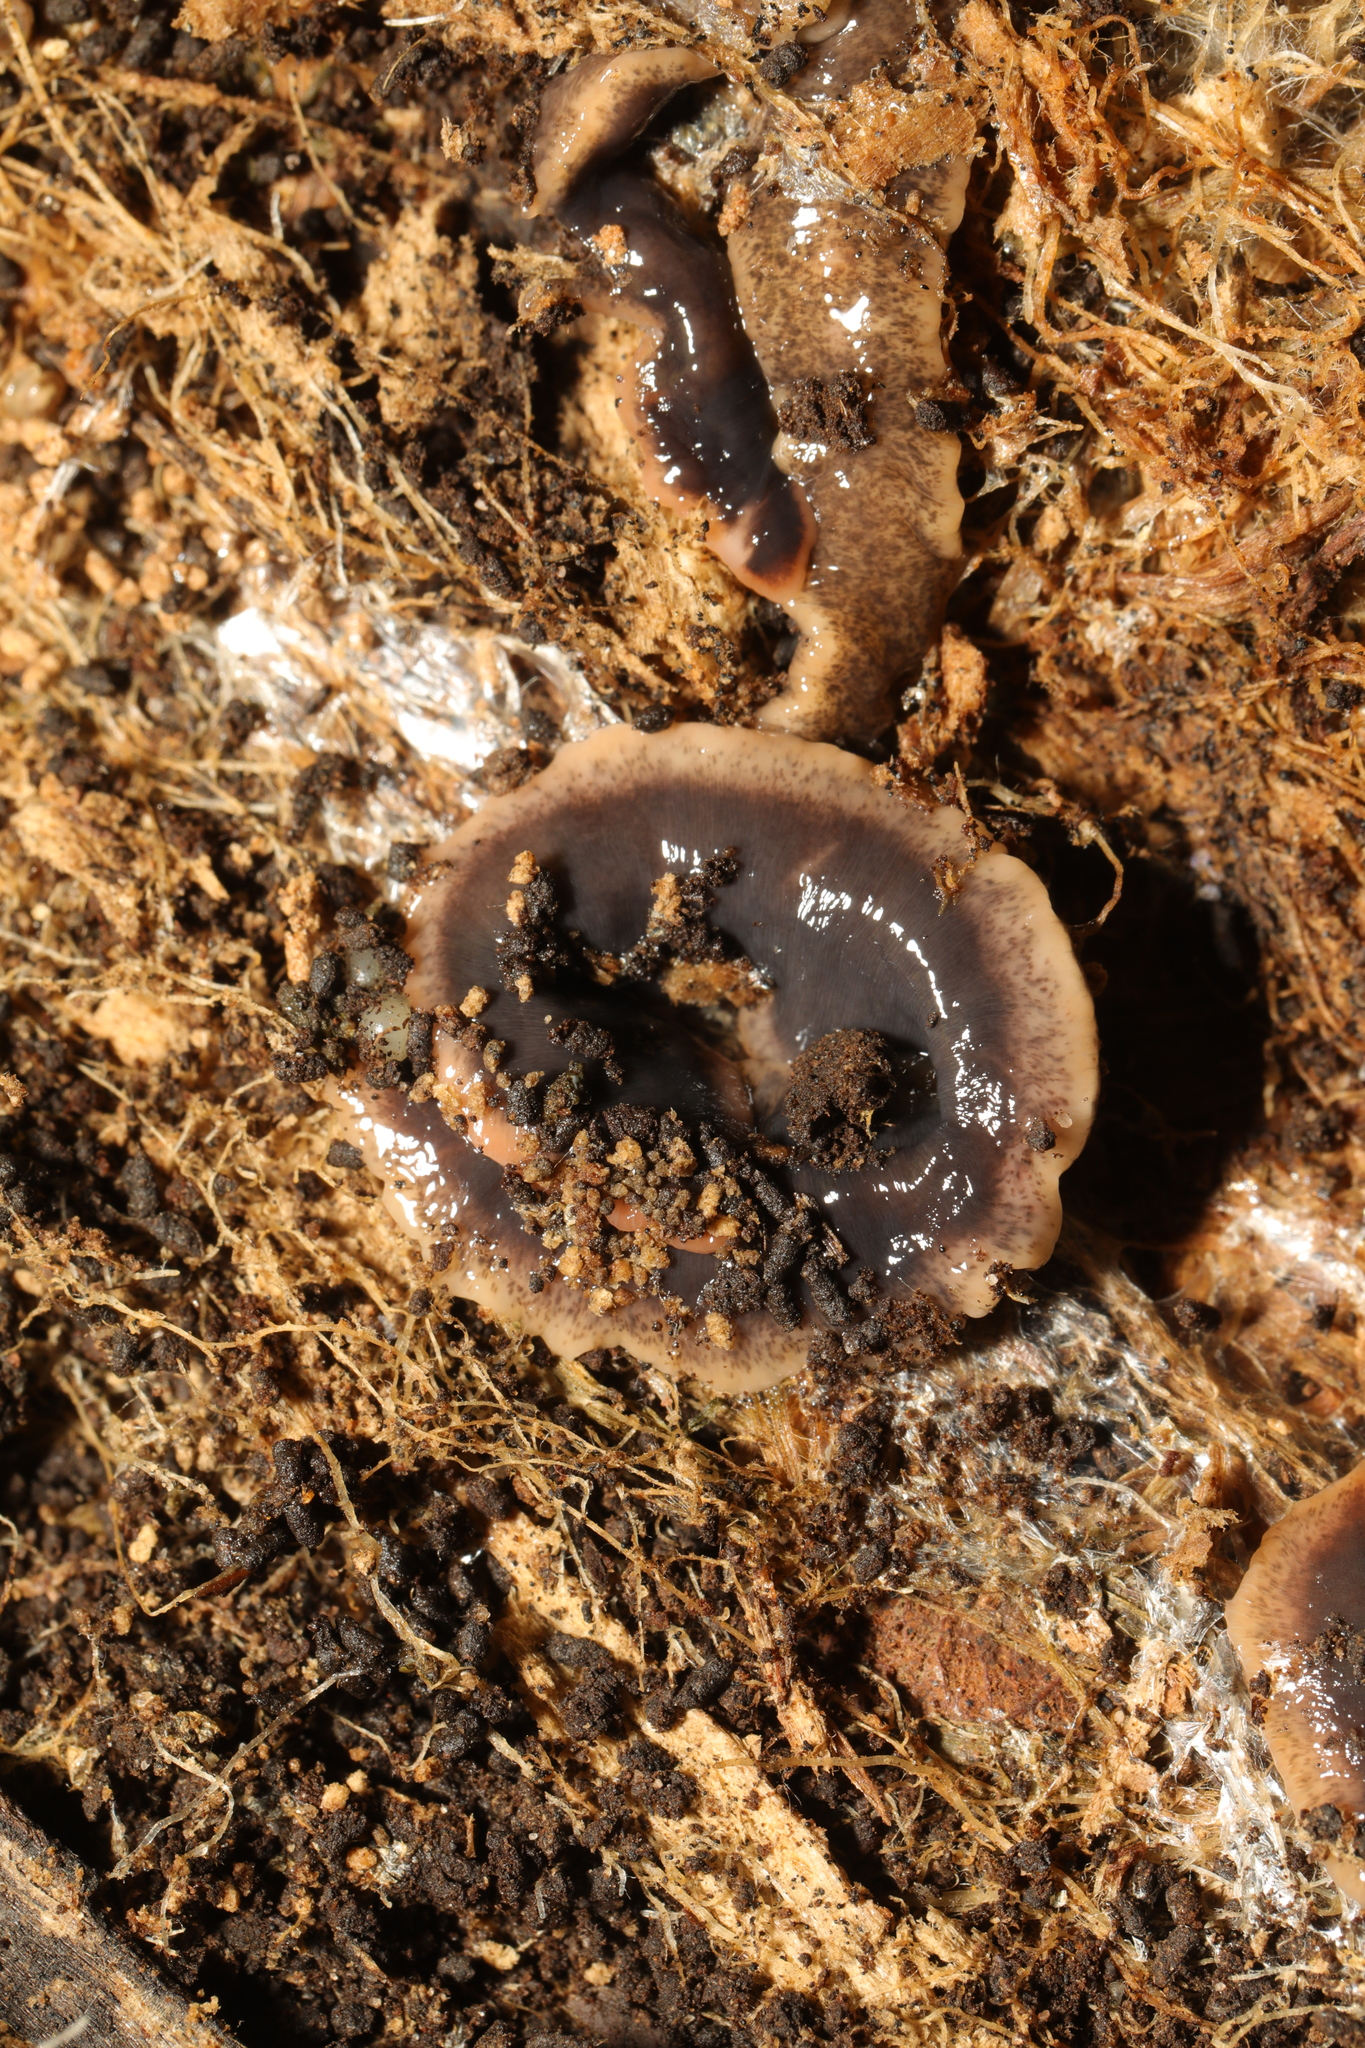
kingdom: Animalia
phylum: Platyhelminthes
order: Tricladida
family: Geoplanidae
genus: Arthurdendyus
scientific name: Arthurdendyus triangulatus
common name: New zealand flatworm
